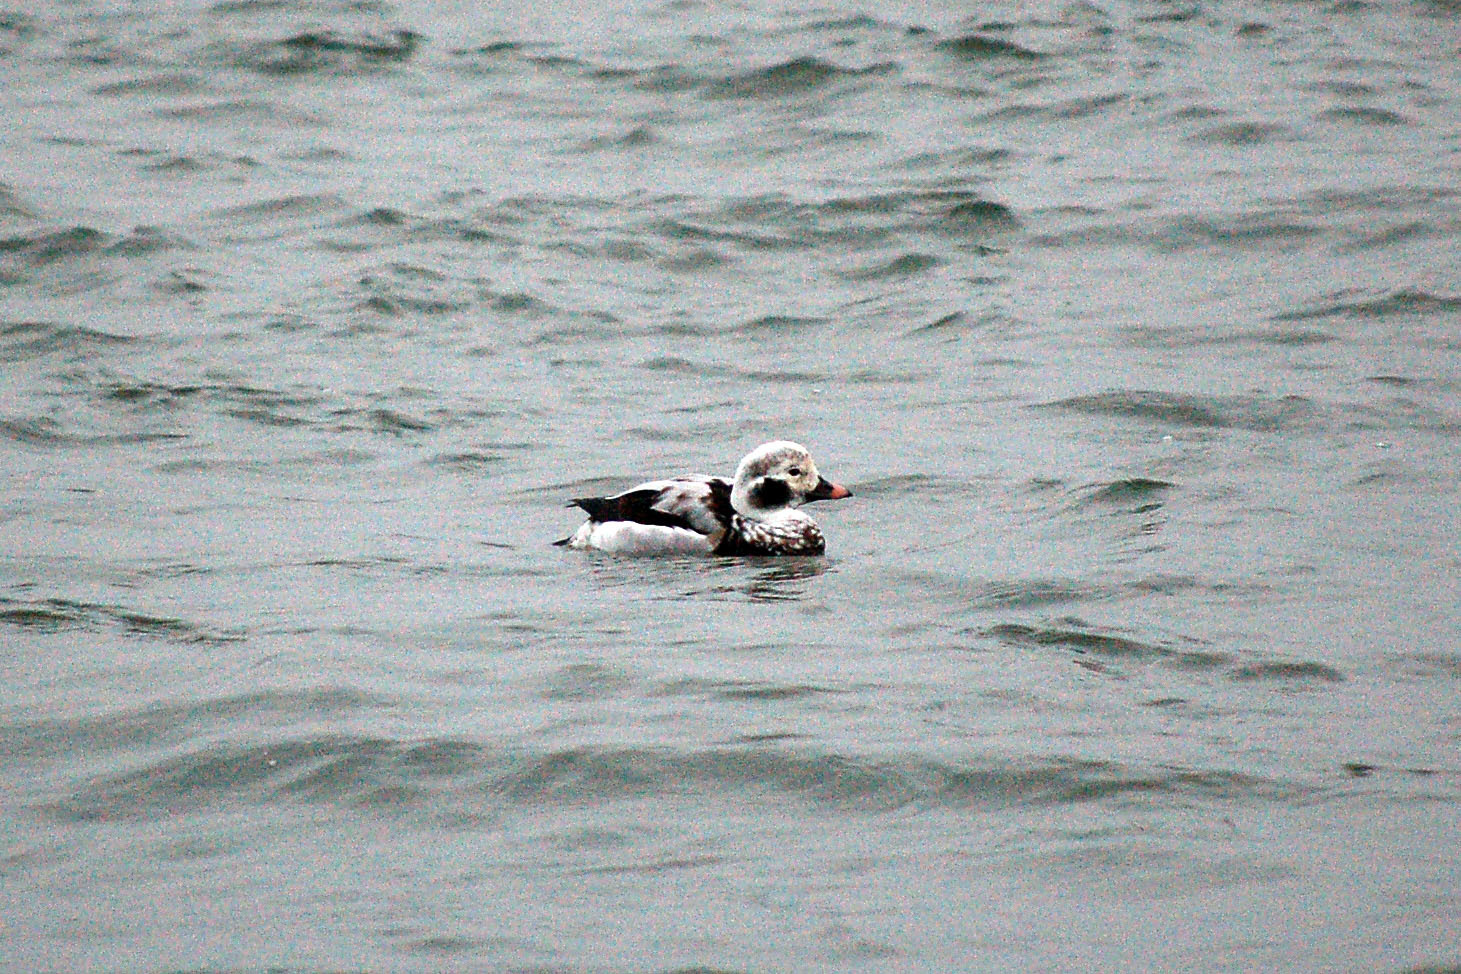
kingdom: Animalia
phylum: Chordata
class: Aves
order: Anseriformes
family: Anatidae
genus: Clangula
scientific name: Clangula hyemalis
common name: Long-tailed duck
